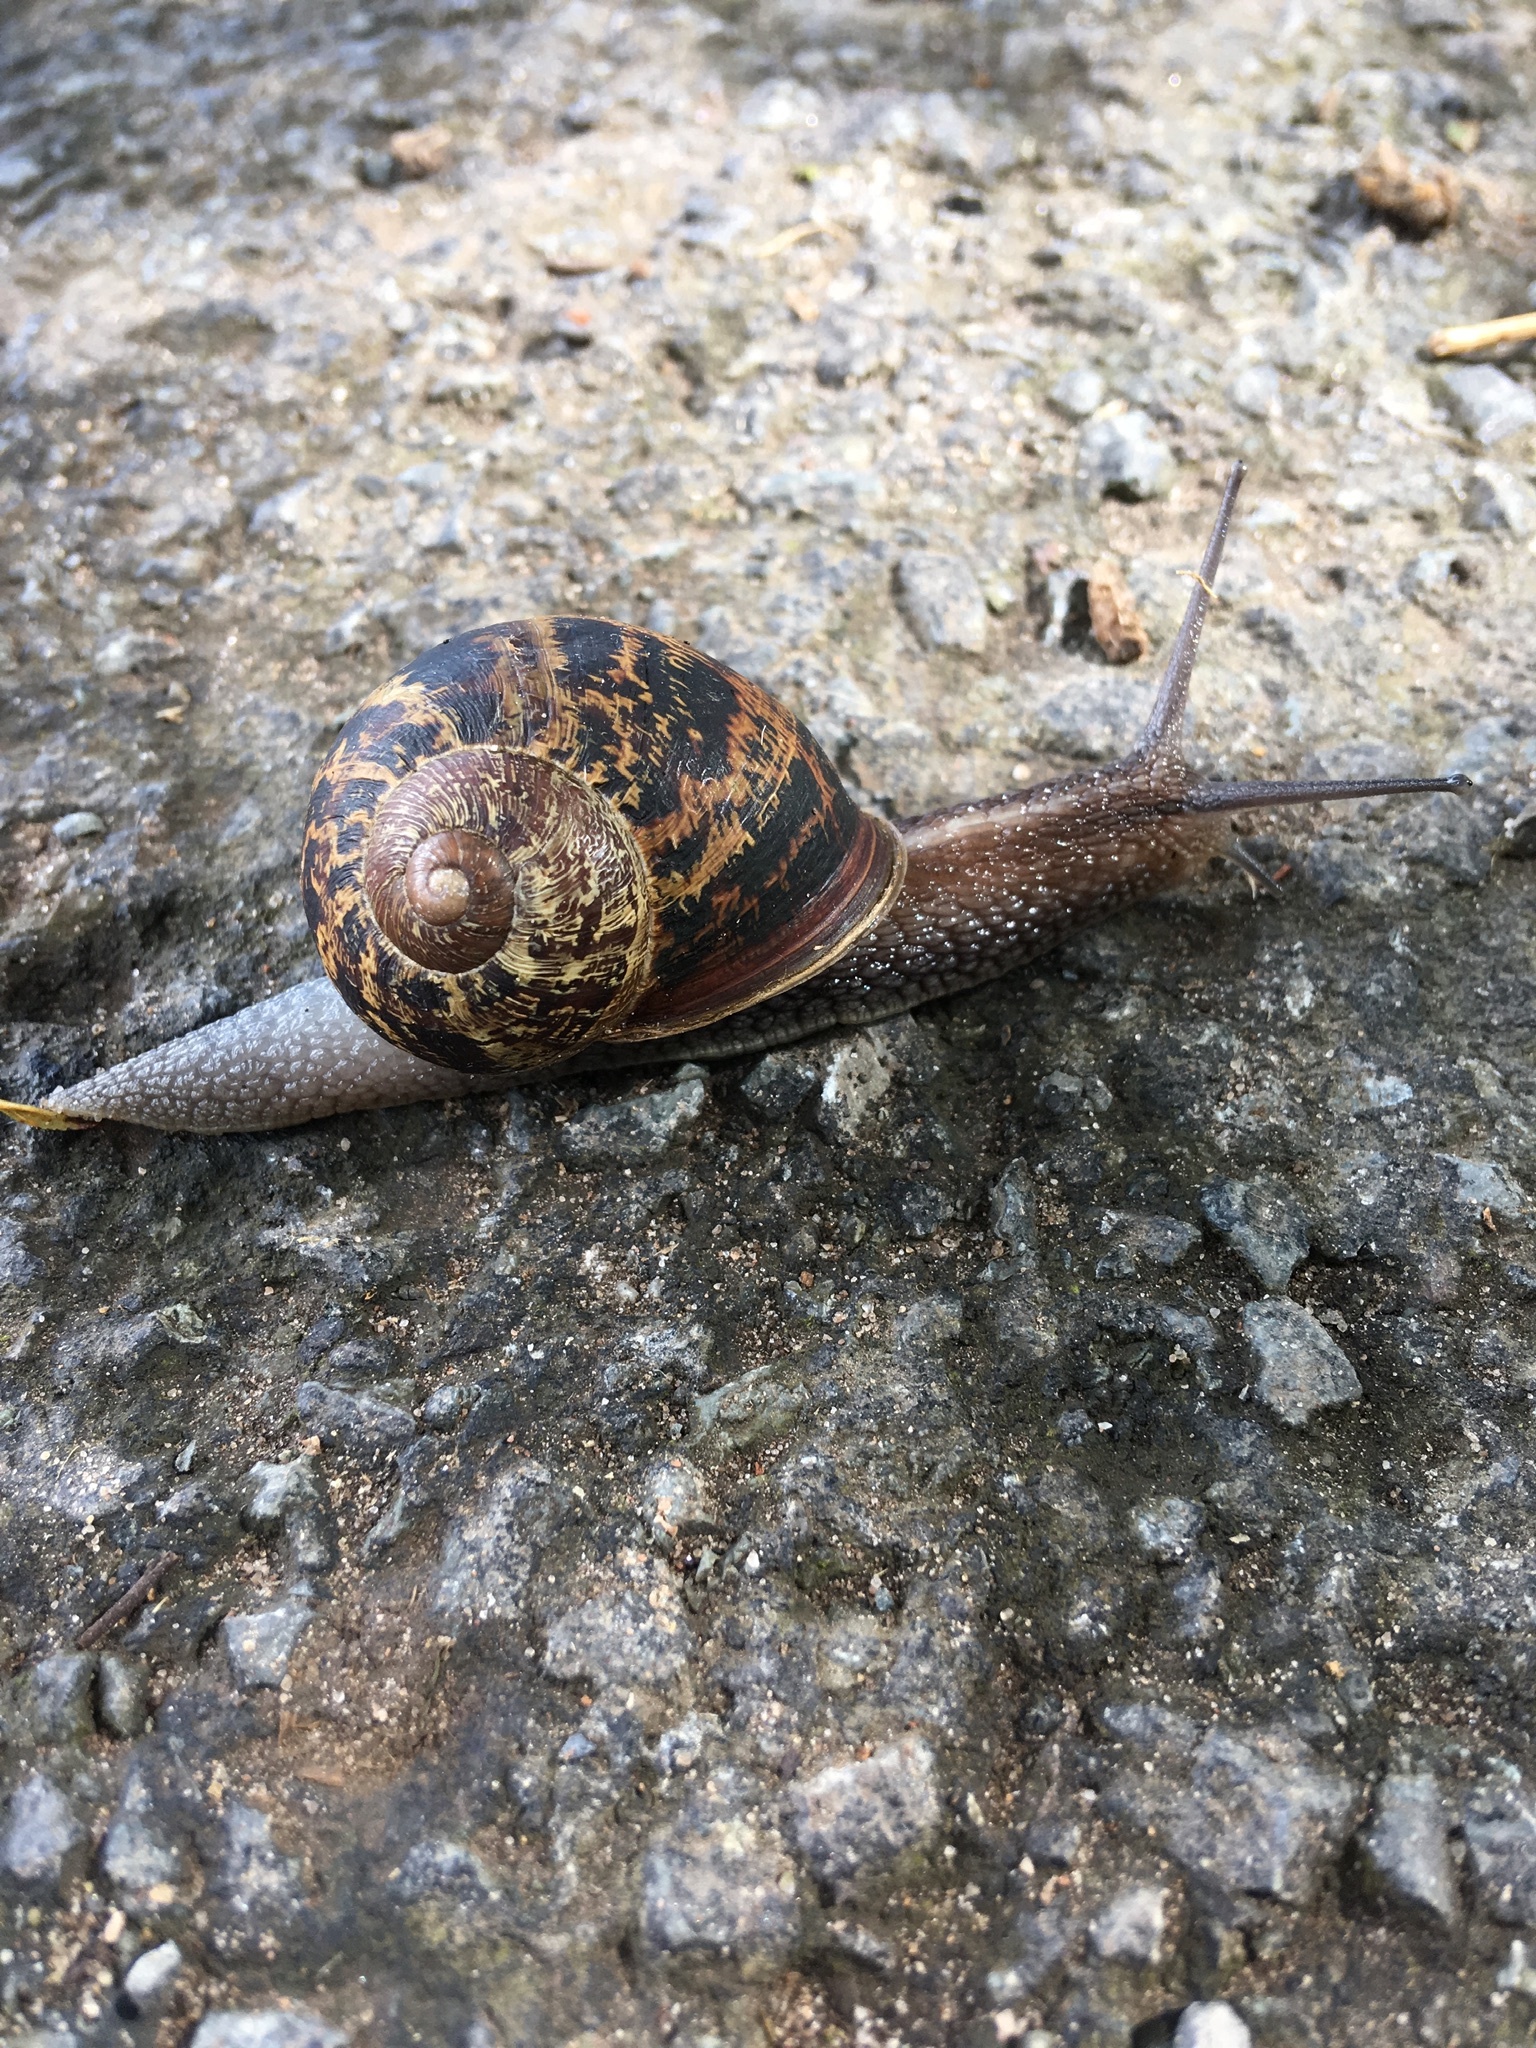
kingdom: Animalia
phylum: Mollusca
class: Gastropoda
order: Stylommatophora
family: Helicidae
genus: Cornu
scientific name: Cornu aspersum
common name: Brown garden snail
